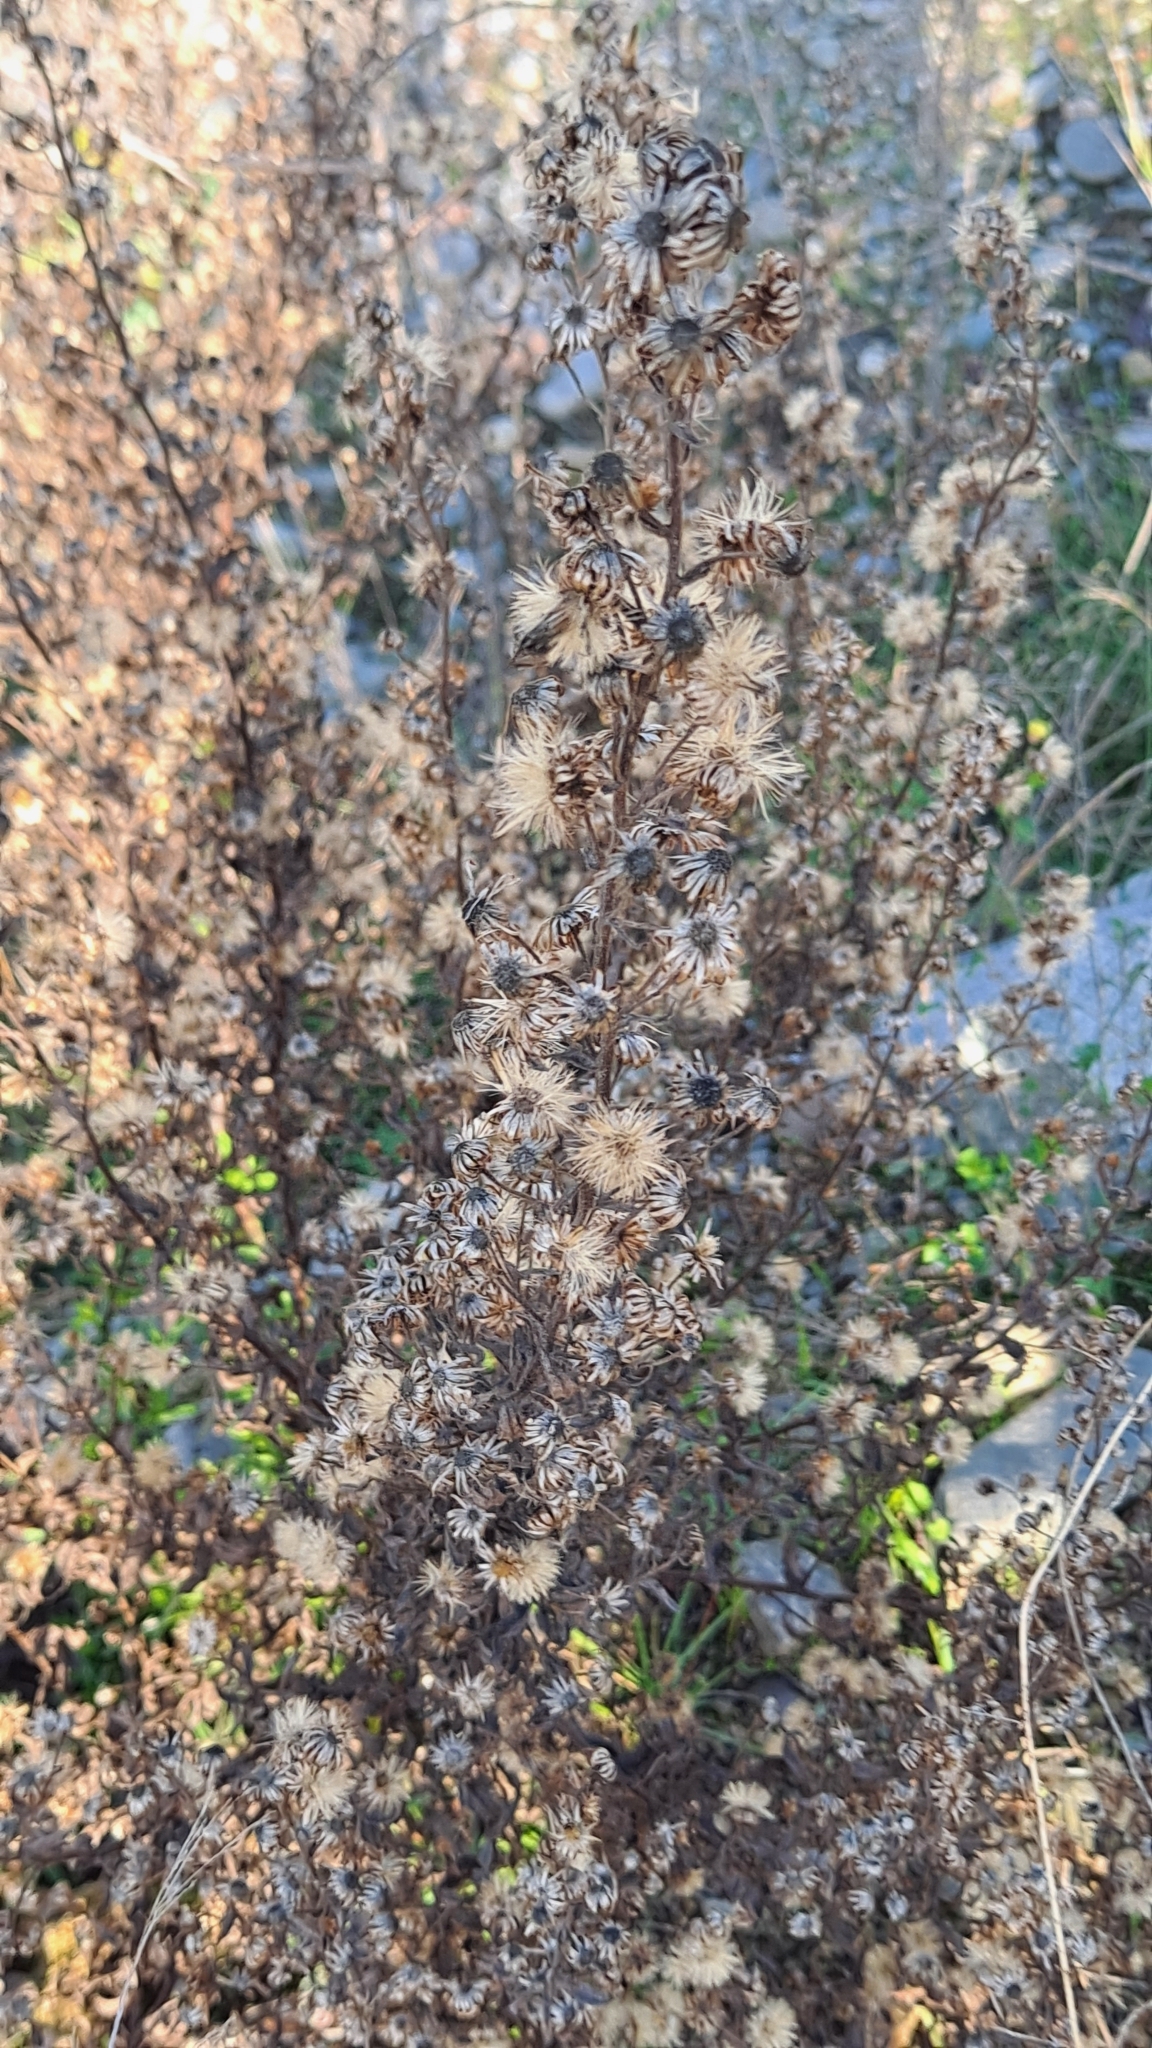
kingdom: Plantae
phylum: Tracheophyta
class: Magnoliopsida
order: Asterales
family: Asteraceae
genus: Dittrichia
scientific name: Dittrichia viscosa
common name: Woody fleabane
